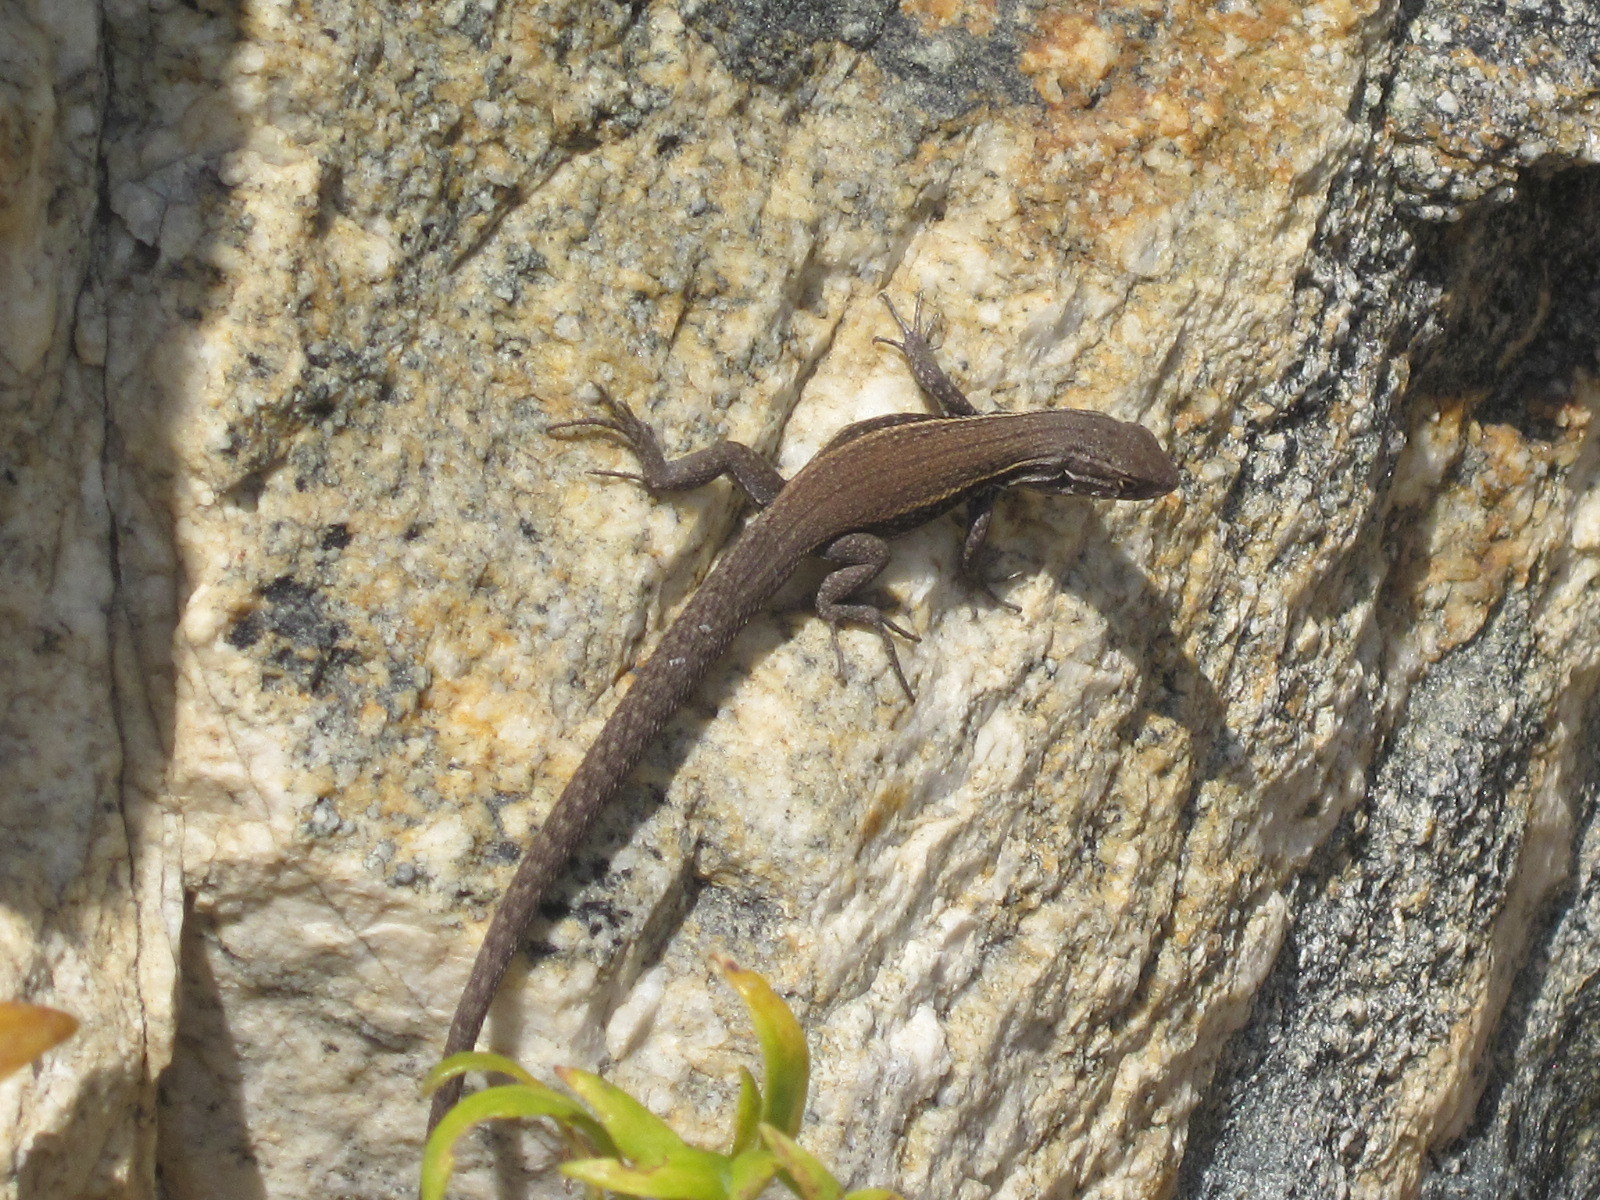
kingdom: Animalia
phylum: Chordata
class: Squamata
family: Liolaemidae
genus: Liolaemus
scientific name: Liolaemus fuscus
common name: Brown tree iguana
